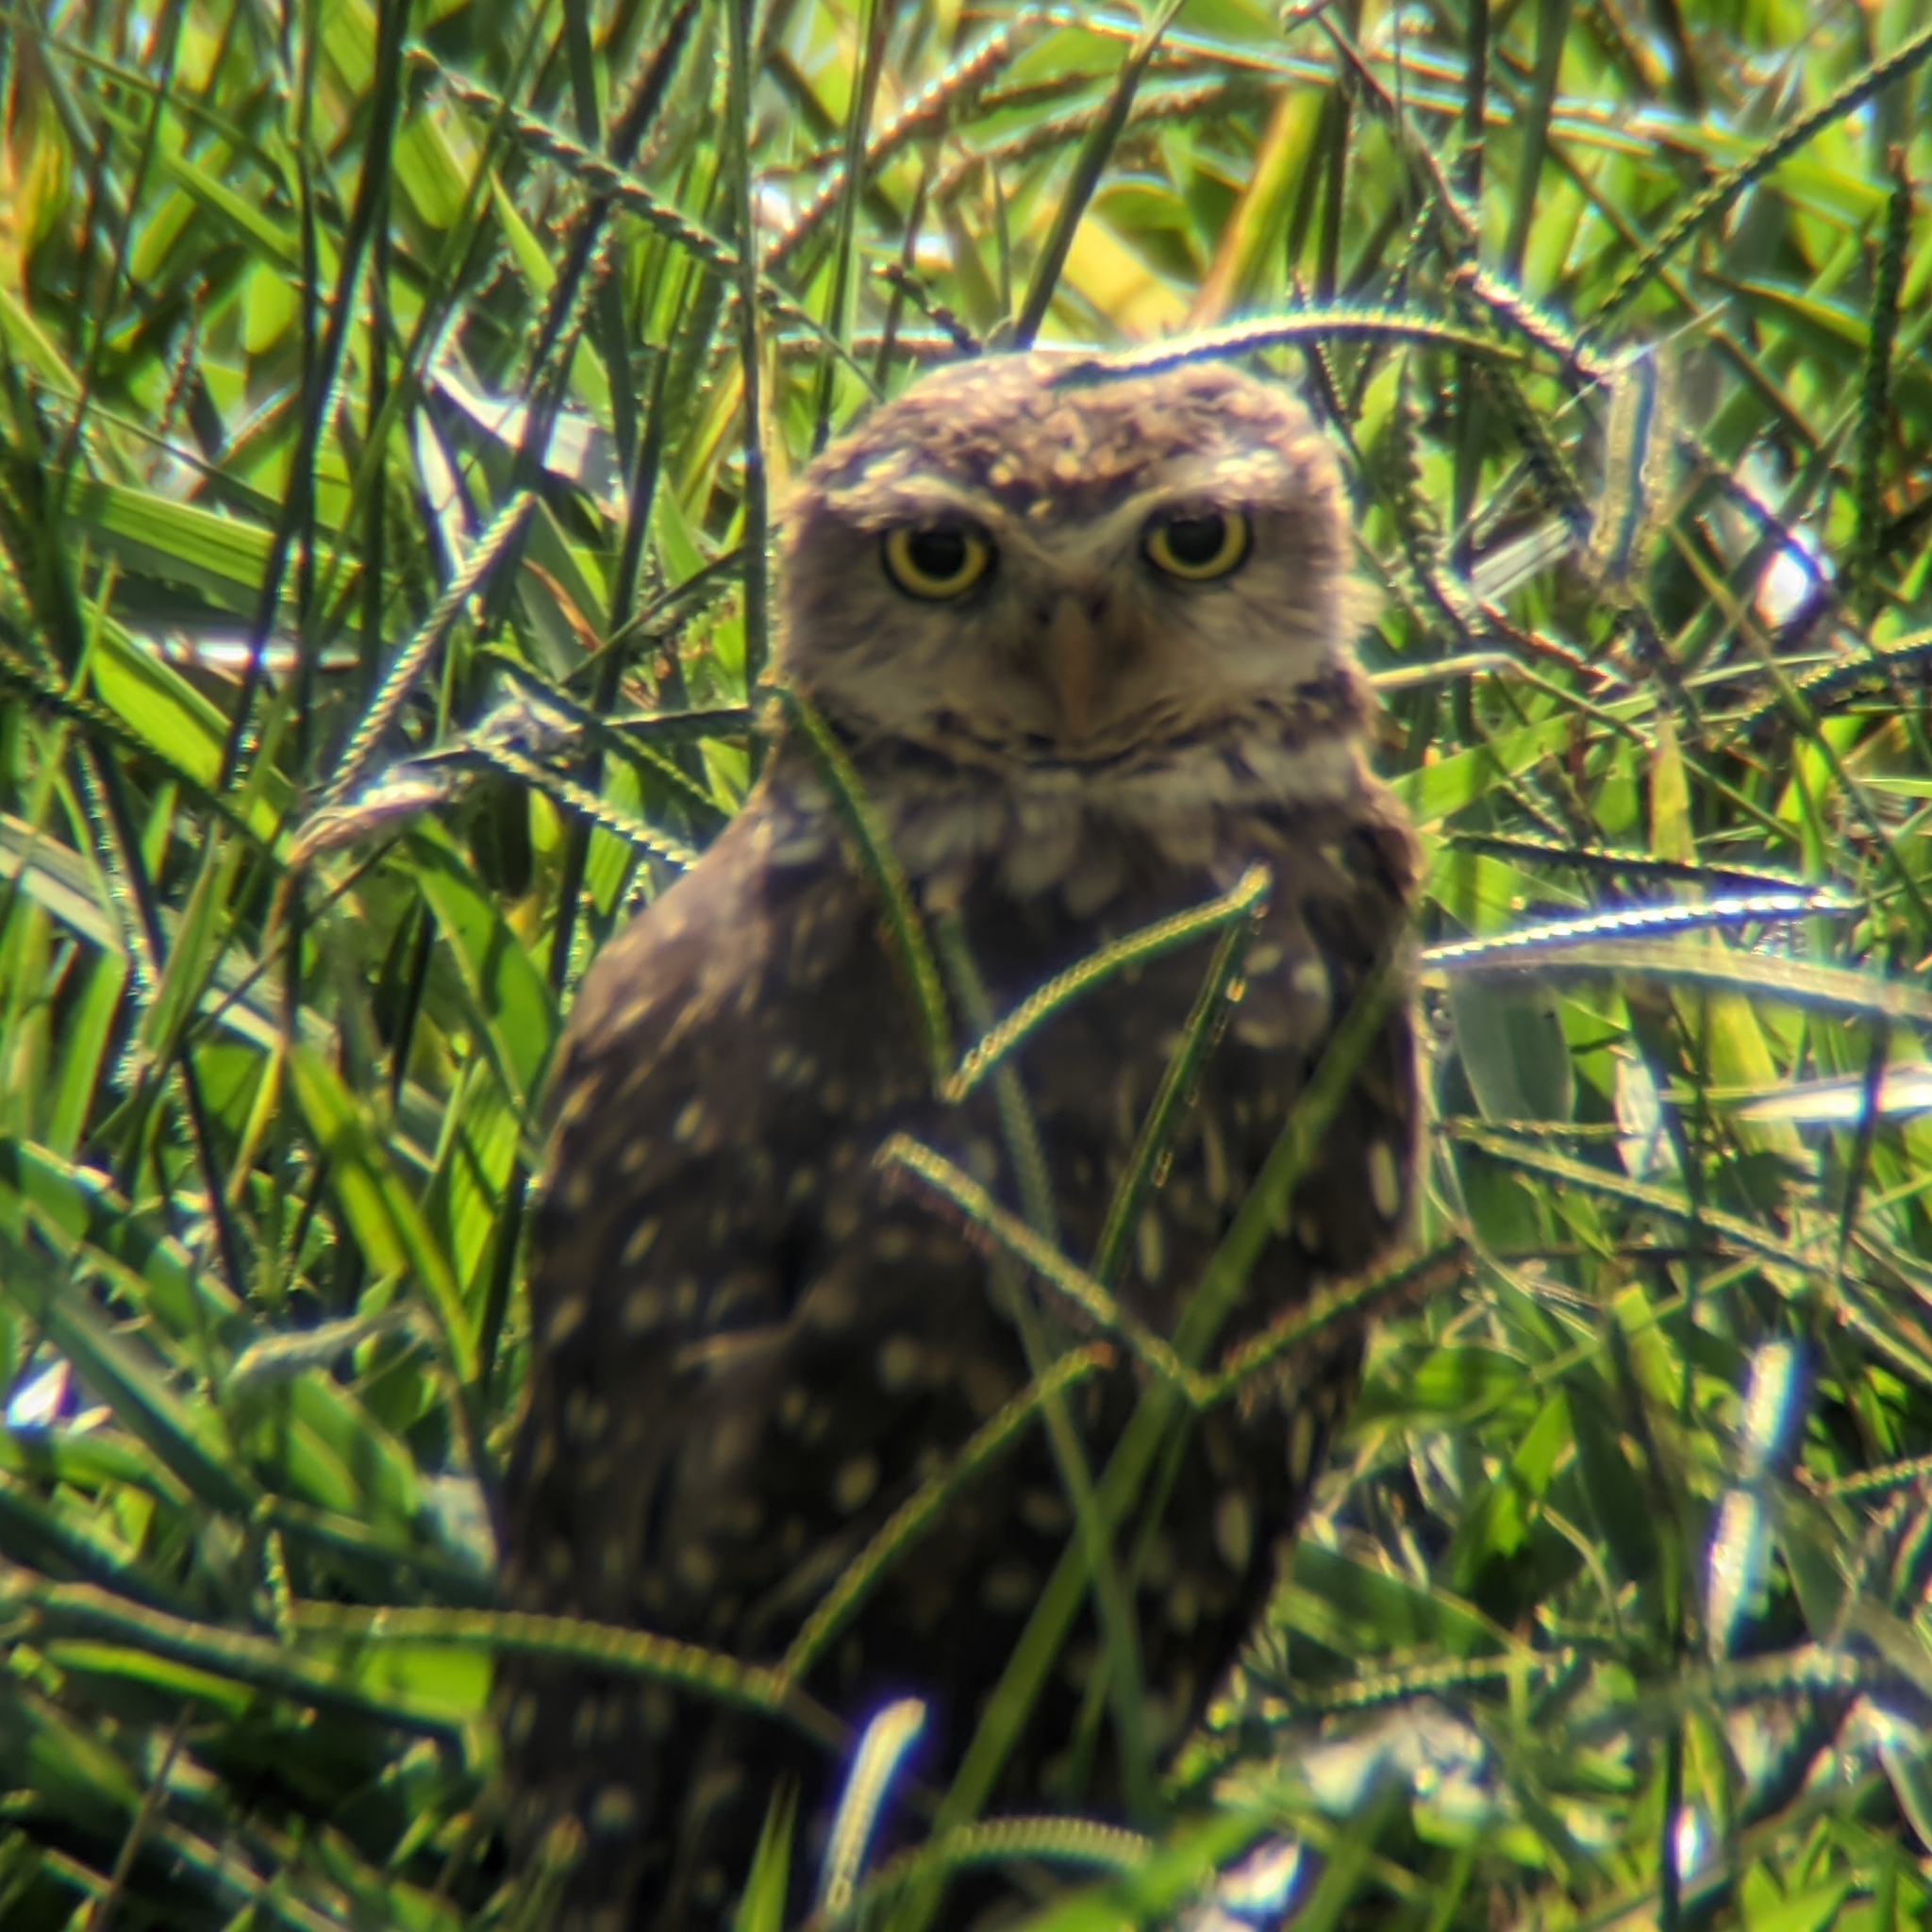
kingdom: Animalia
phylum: Chordata
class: Aves
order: Strigiformes
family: Strigidae
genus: Athene
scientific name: Athene cunicularia
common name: Burrowing owl
